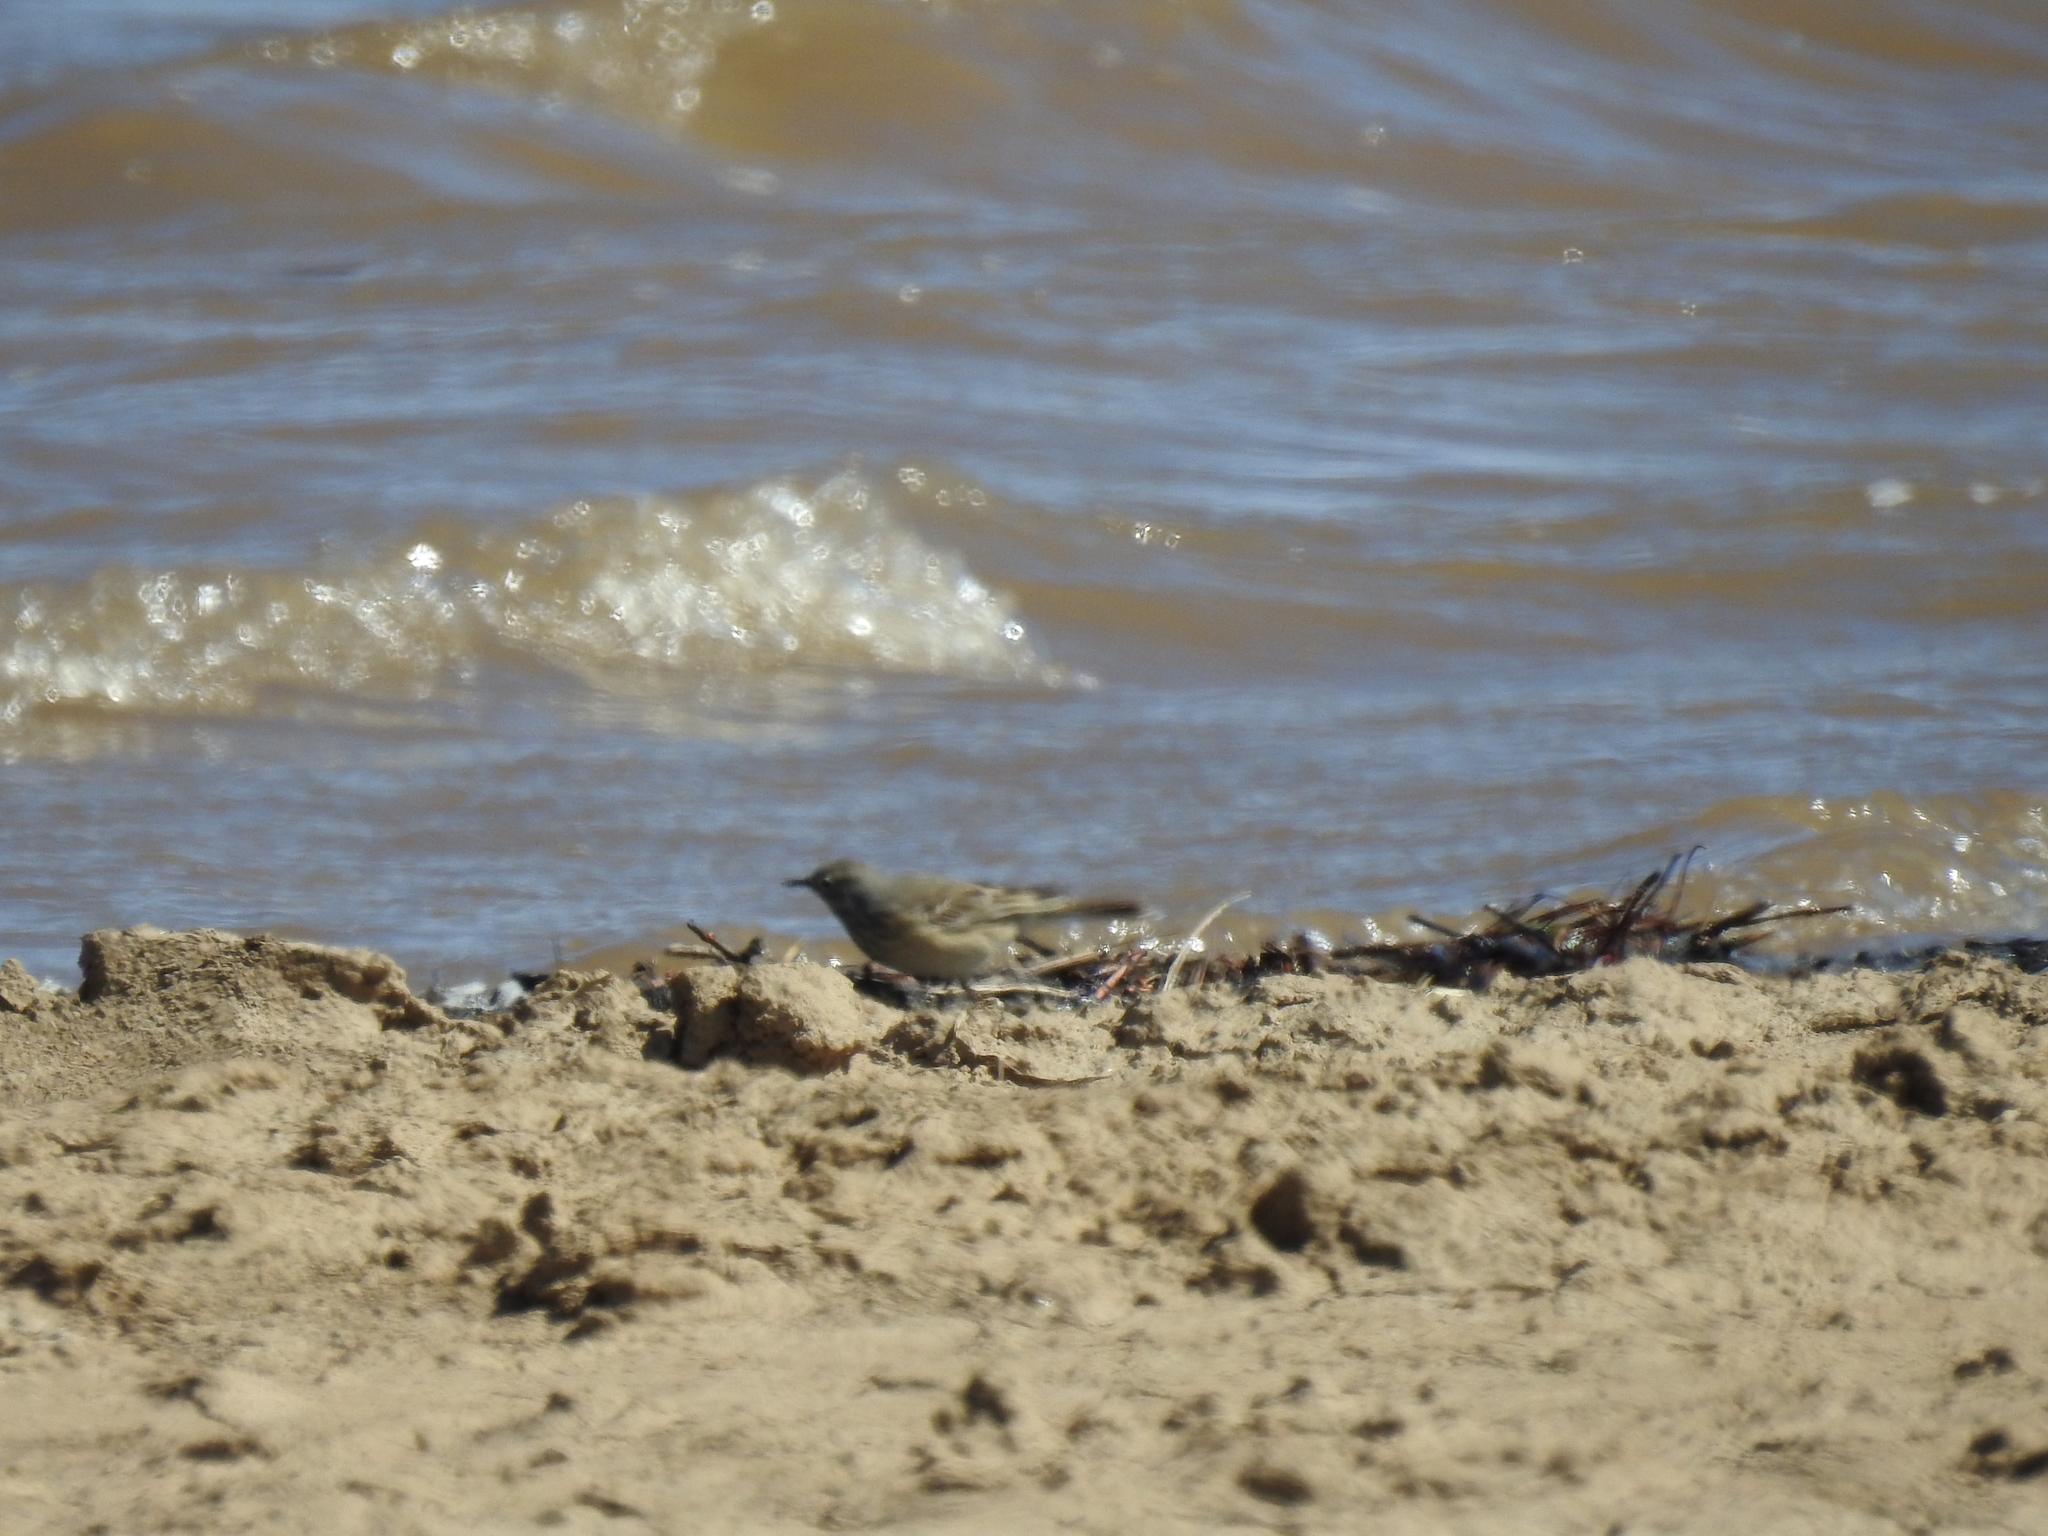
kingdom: Animalia
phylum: Chordata
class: Aves
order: Passeriformes
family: Motacillidae
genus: Anthus
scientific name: Anthus rubescens
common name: Buff-bellied pipit
